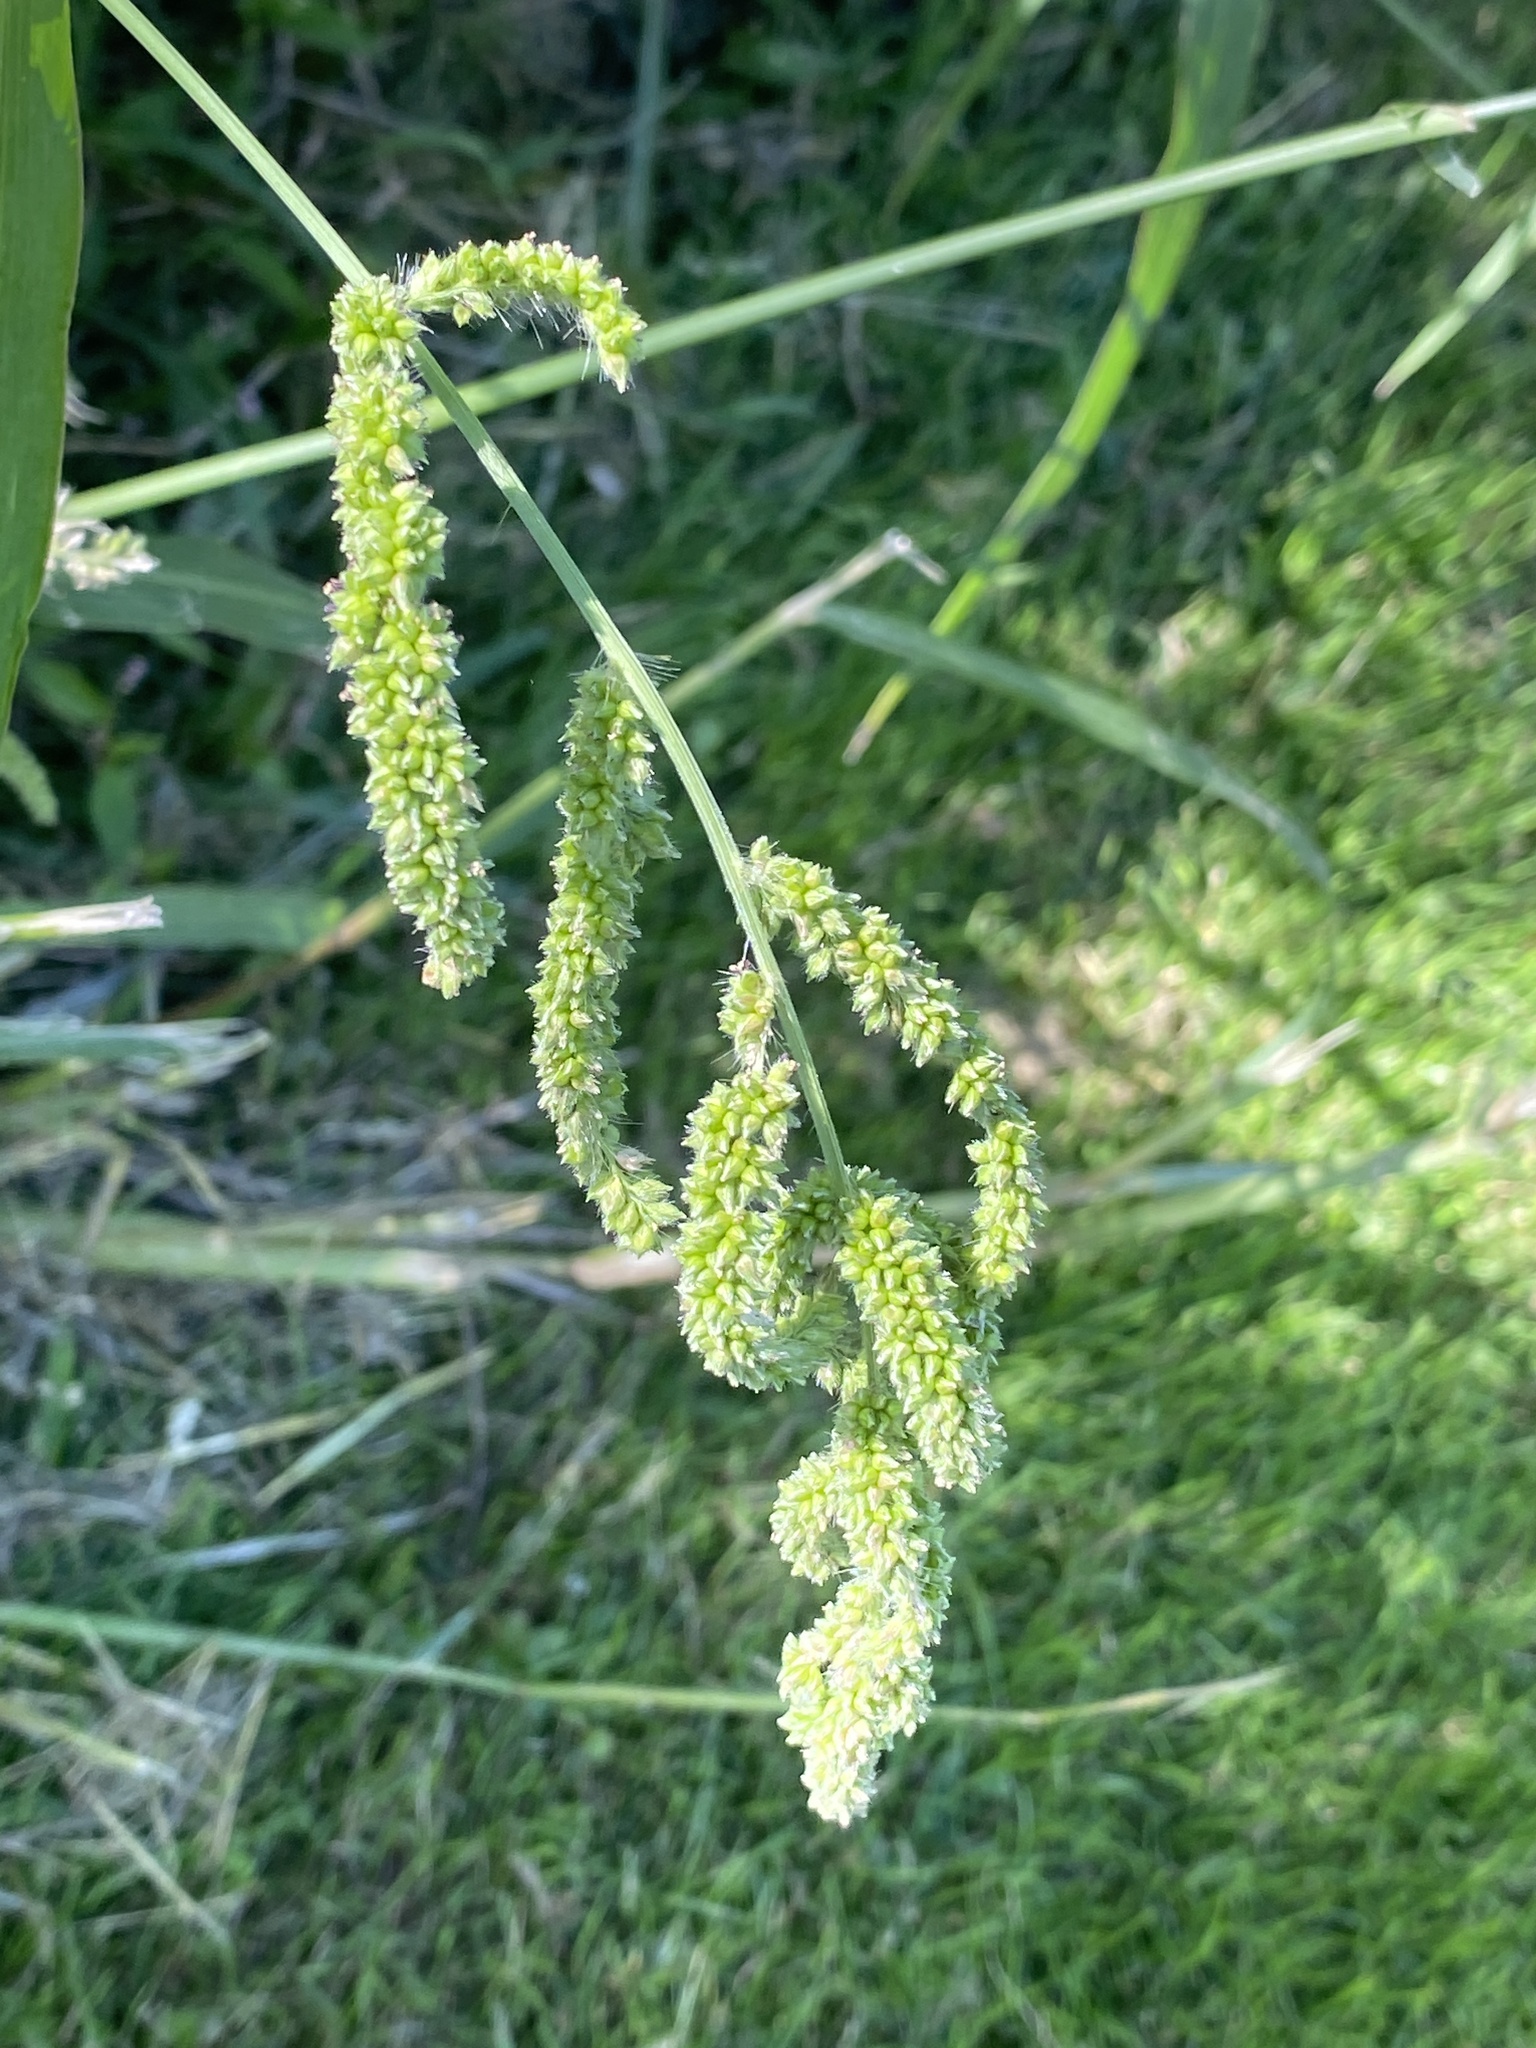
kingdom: Plantae
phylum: Tracheophyta
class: Liliopsida
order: Poales
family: Poaceae
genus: Echinochloa
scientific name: Echinochloa crus-galli
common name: Cockspur
